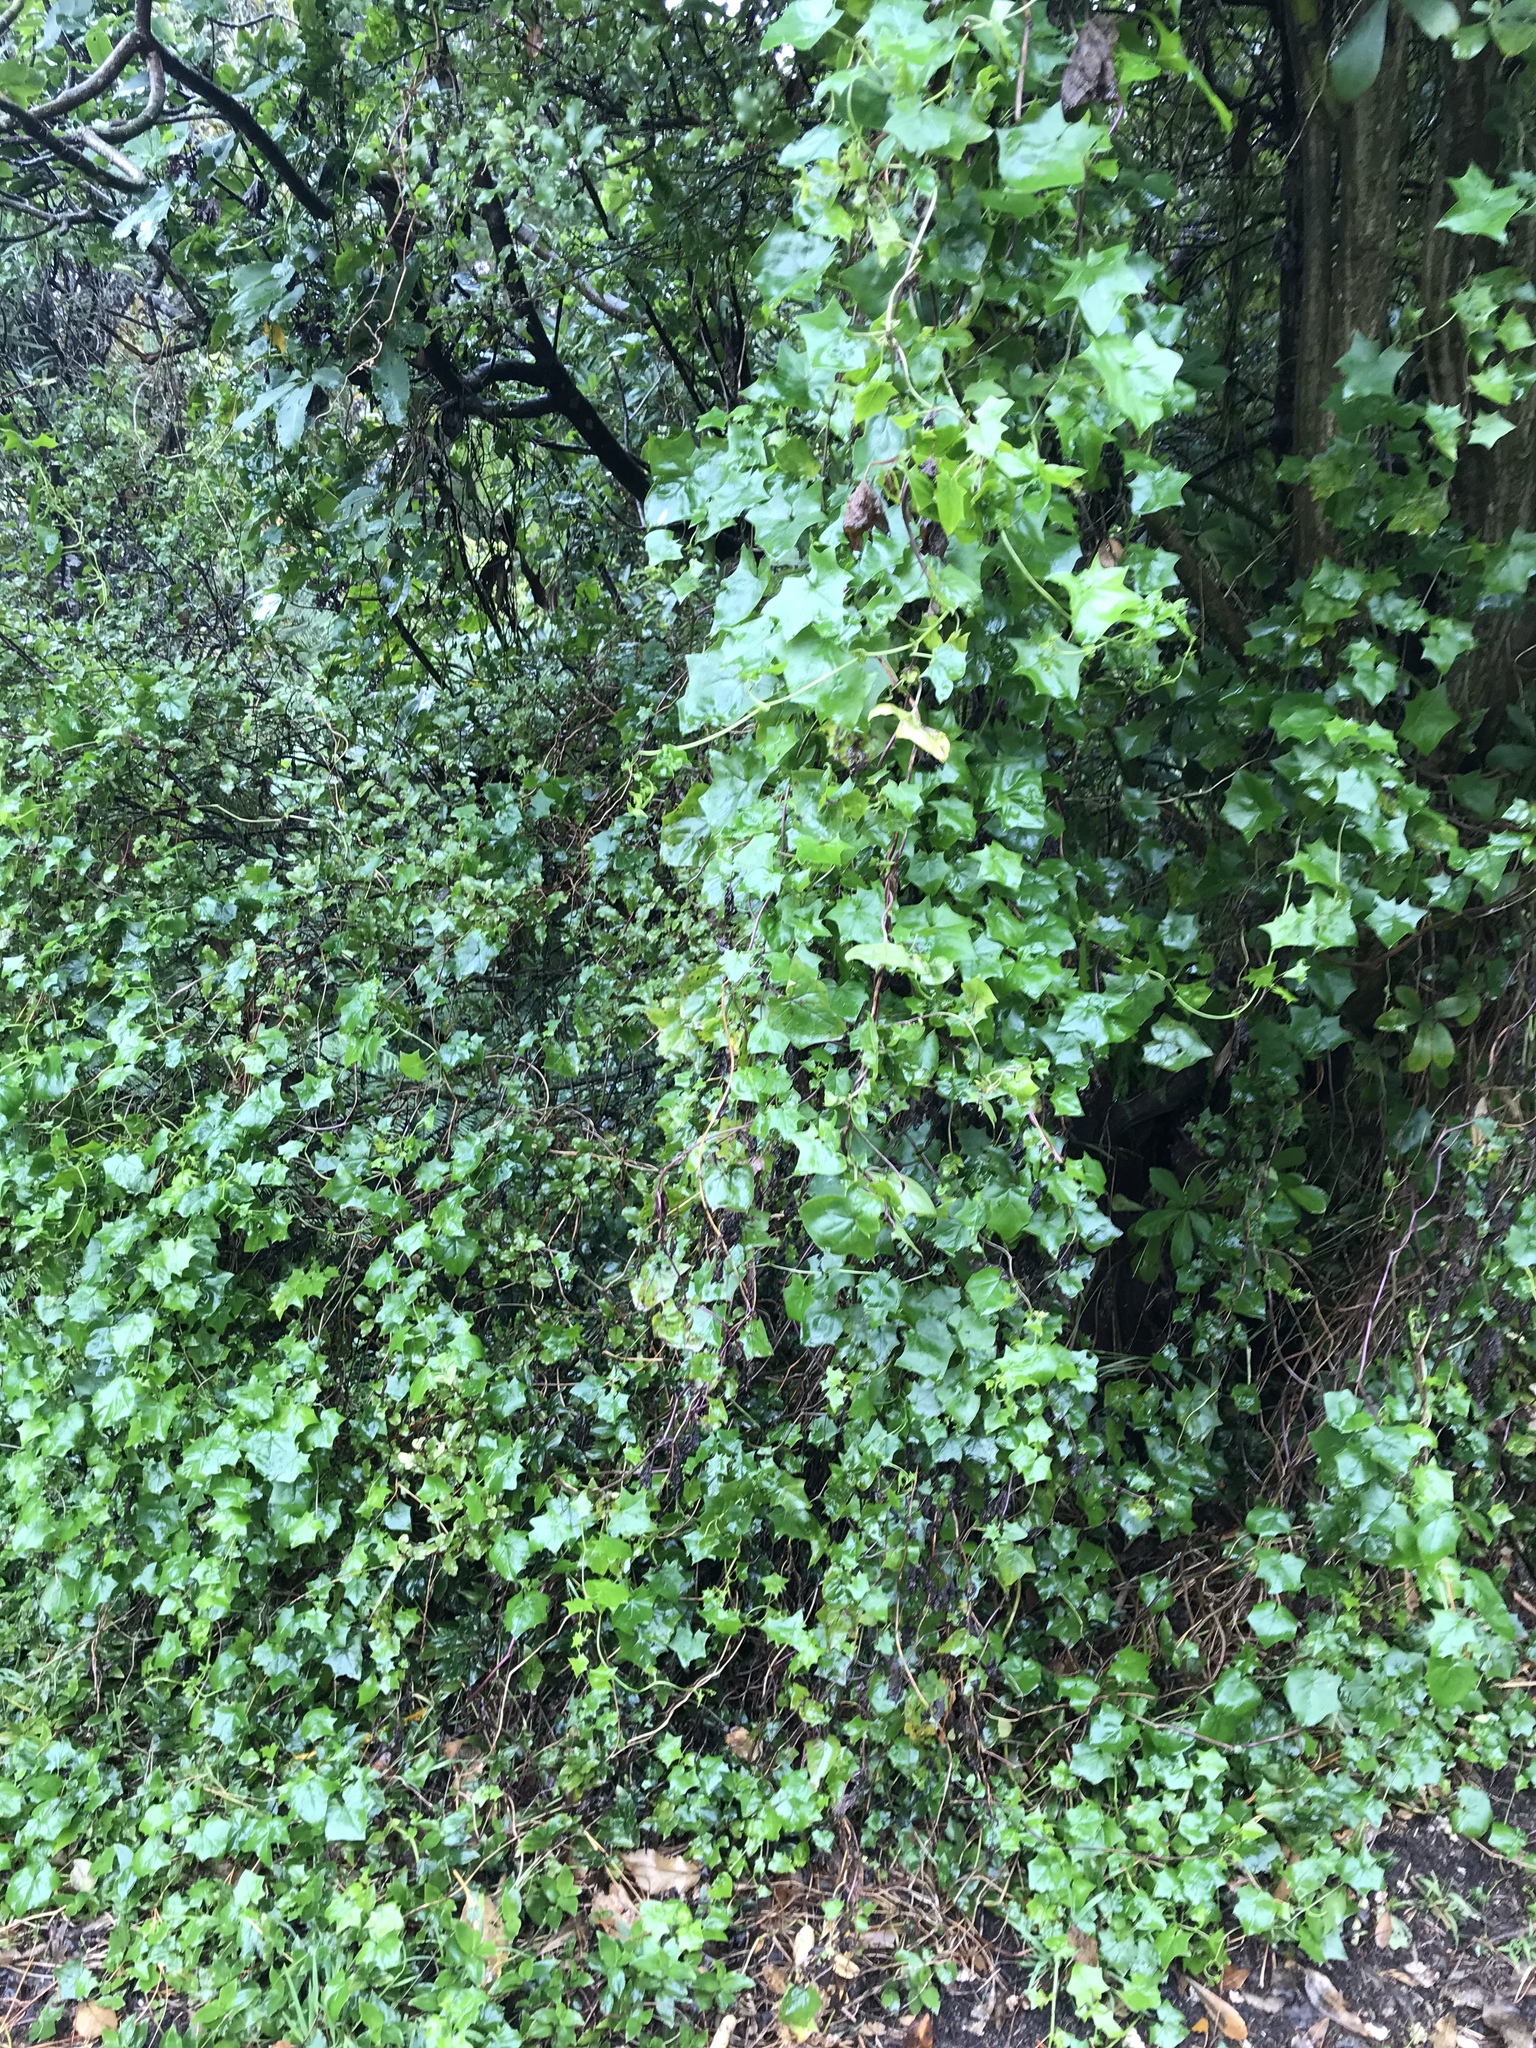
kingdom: Plantae
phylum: Tracheophyta
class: Magnoliopsida
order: Asterales
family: Asteraceae
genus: Delairea
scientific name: Delairea odorata
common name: Cape-ivy
